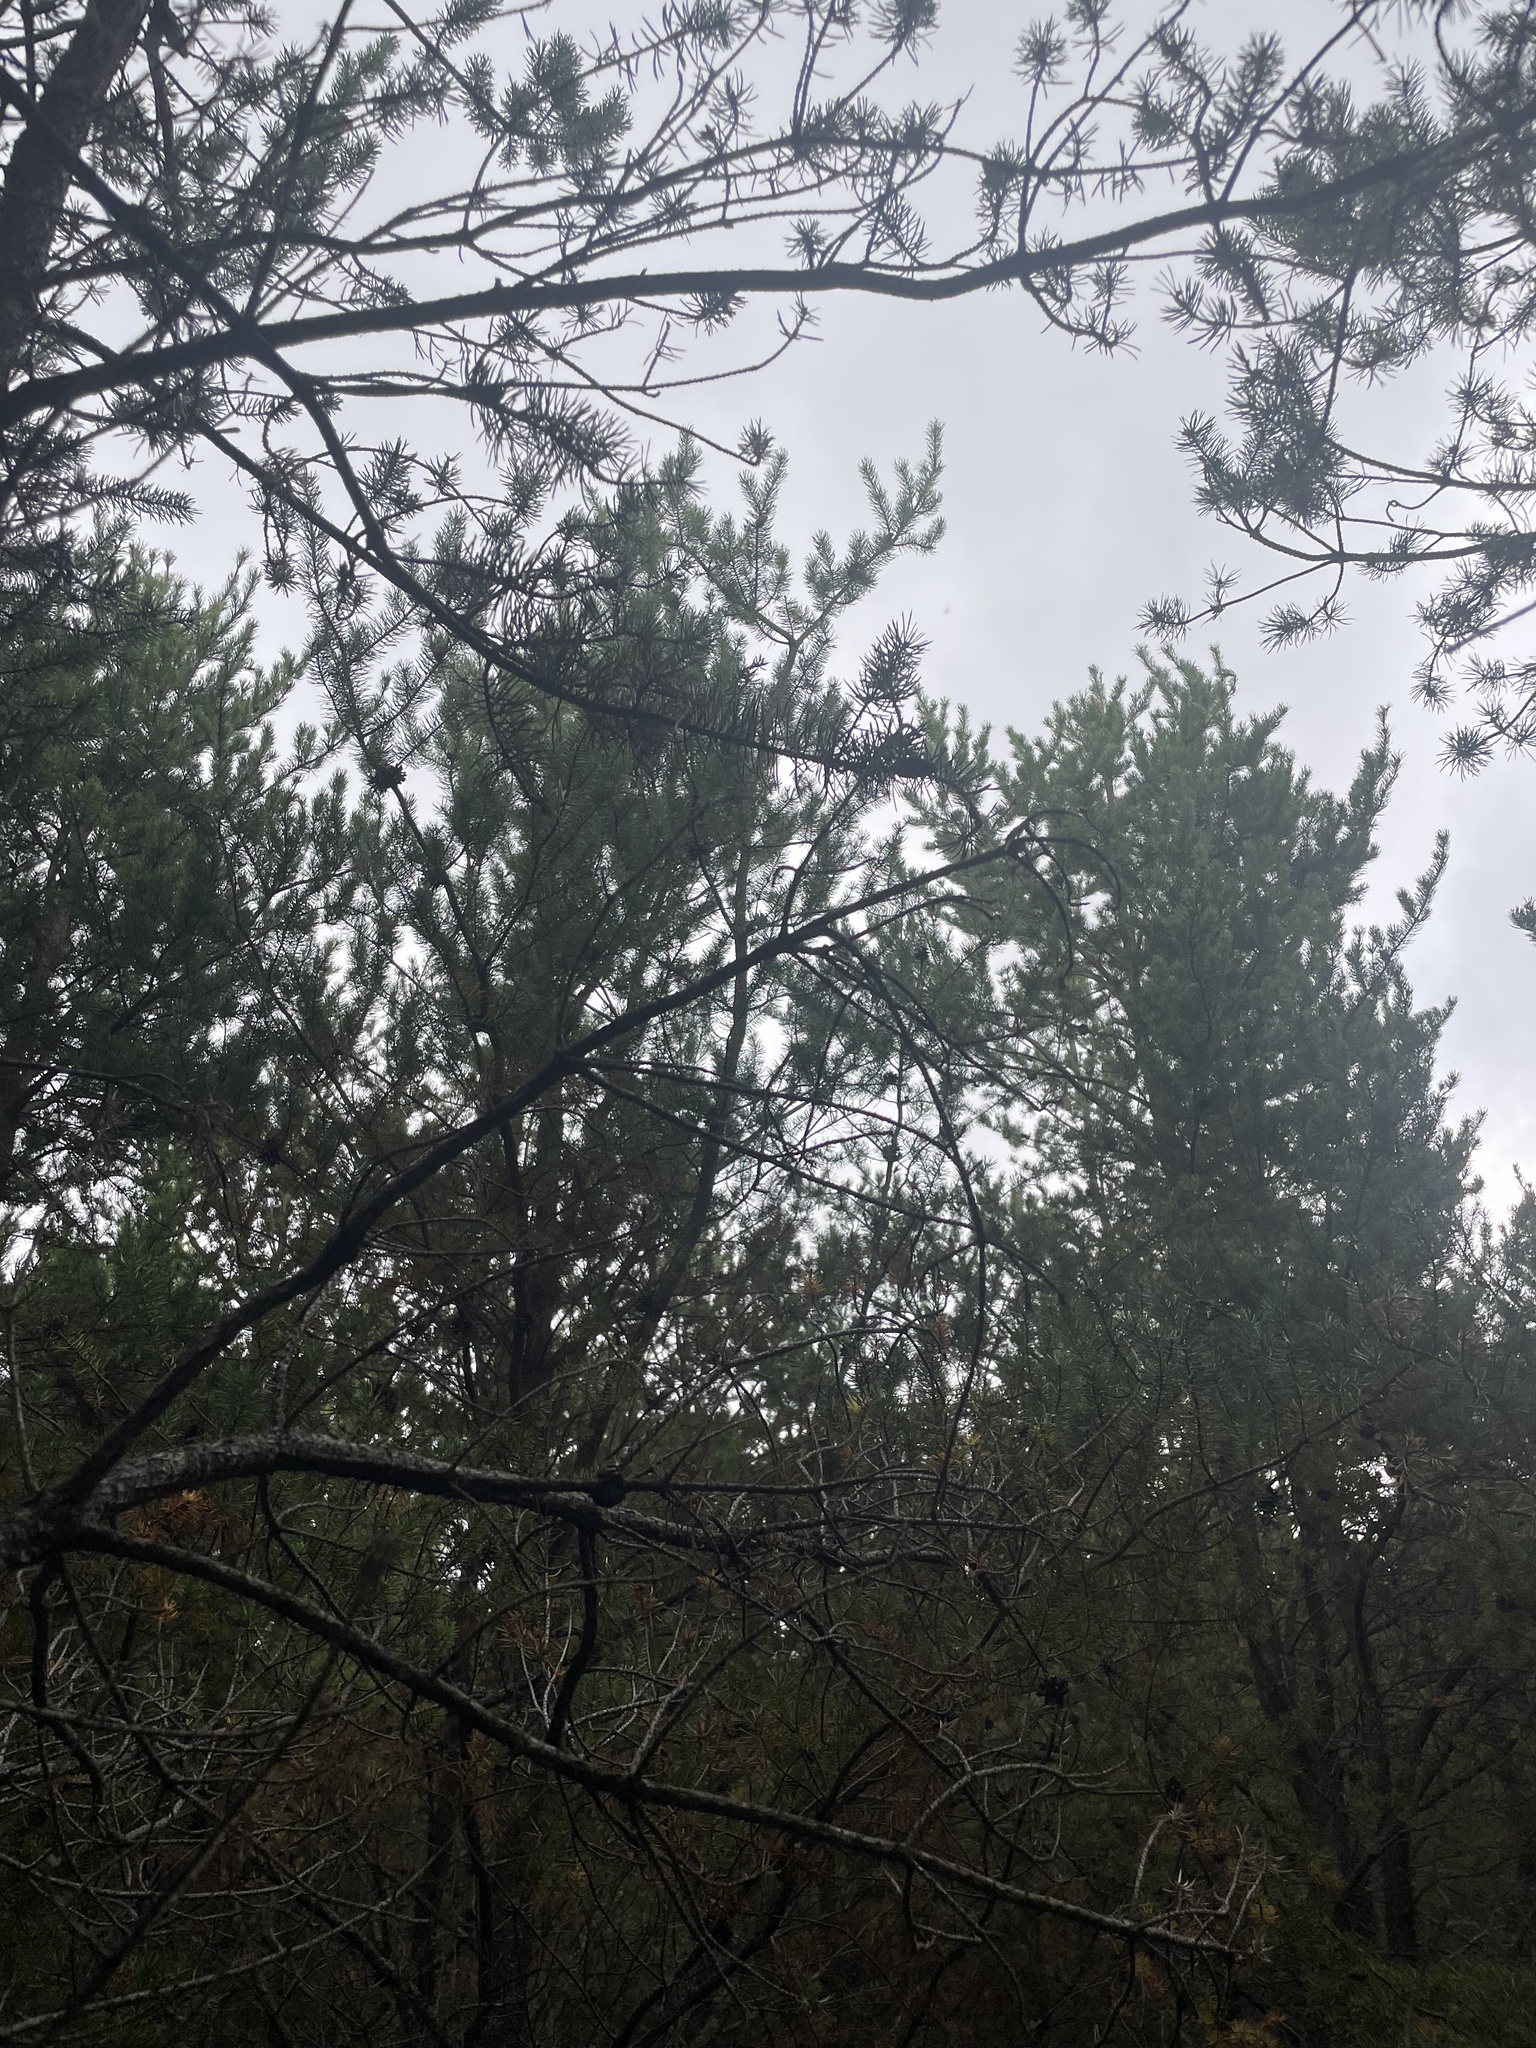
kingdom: Plantae
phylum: Tracheophyta
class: Pinopsida
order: Pinales
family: Pinaceae
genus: Pinus
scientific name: Pinus banksiana
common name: Jack pine
